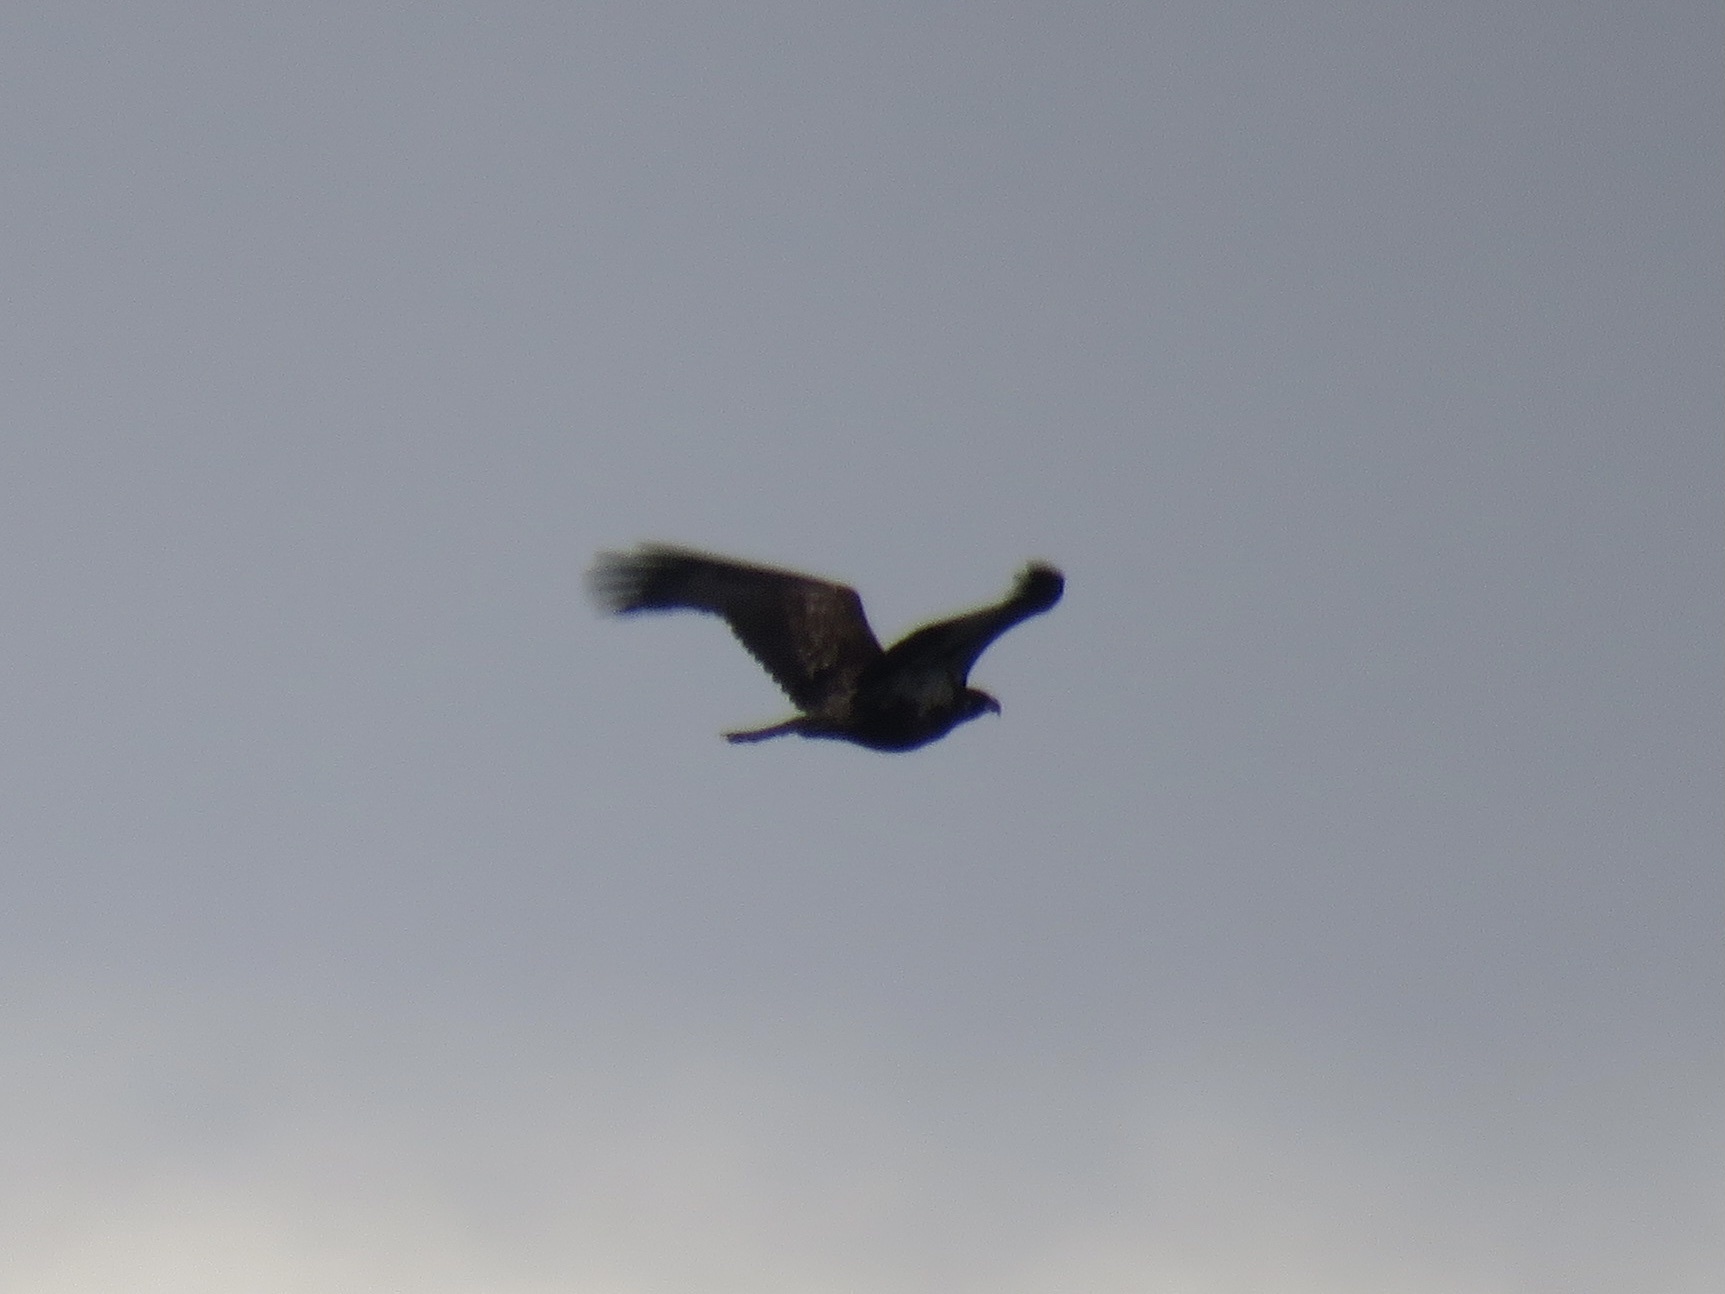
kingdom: Animalia
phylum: Chordata
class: Aves
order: Accipitriformes
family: Accipitridae
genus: Haliaeetus
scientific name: Haliaeetus leucocephalus
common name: Bald eagle
